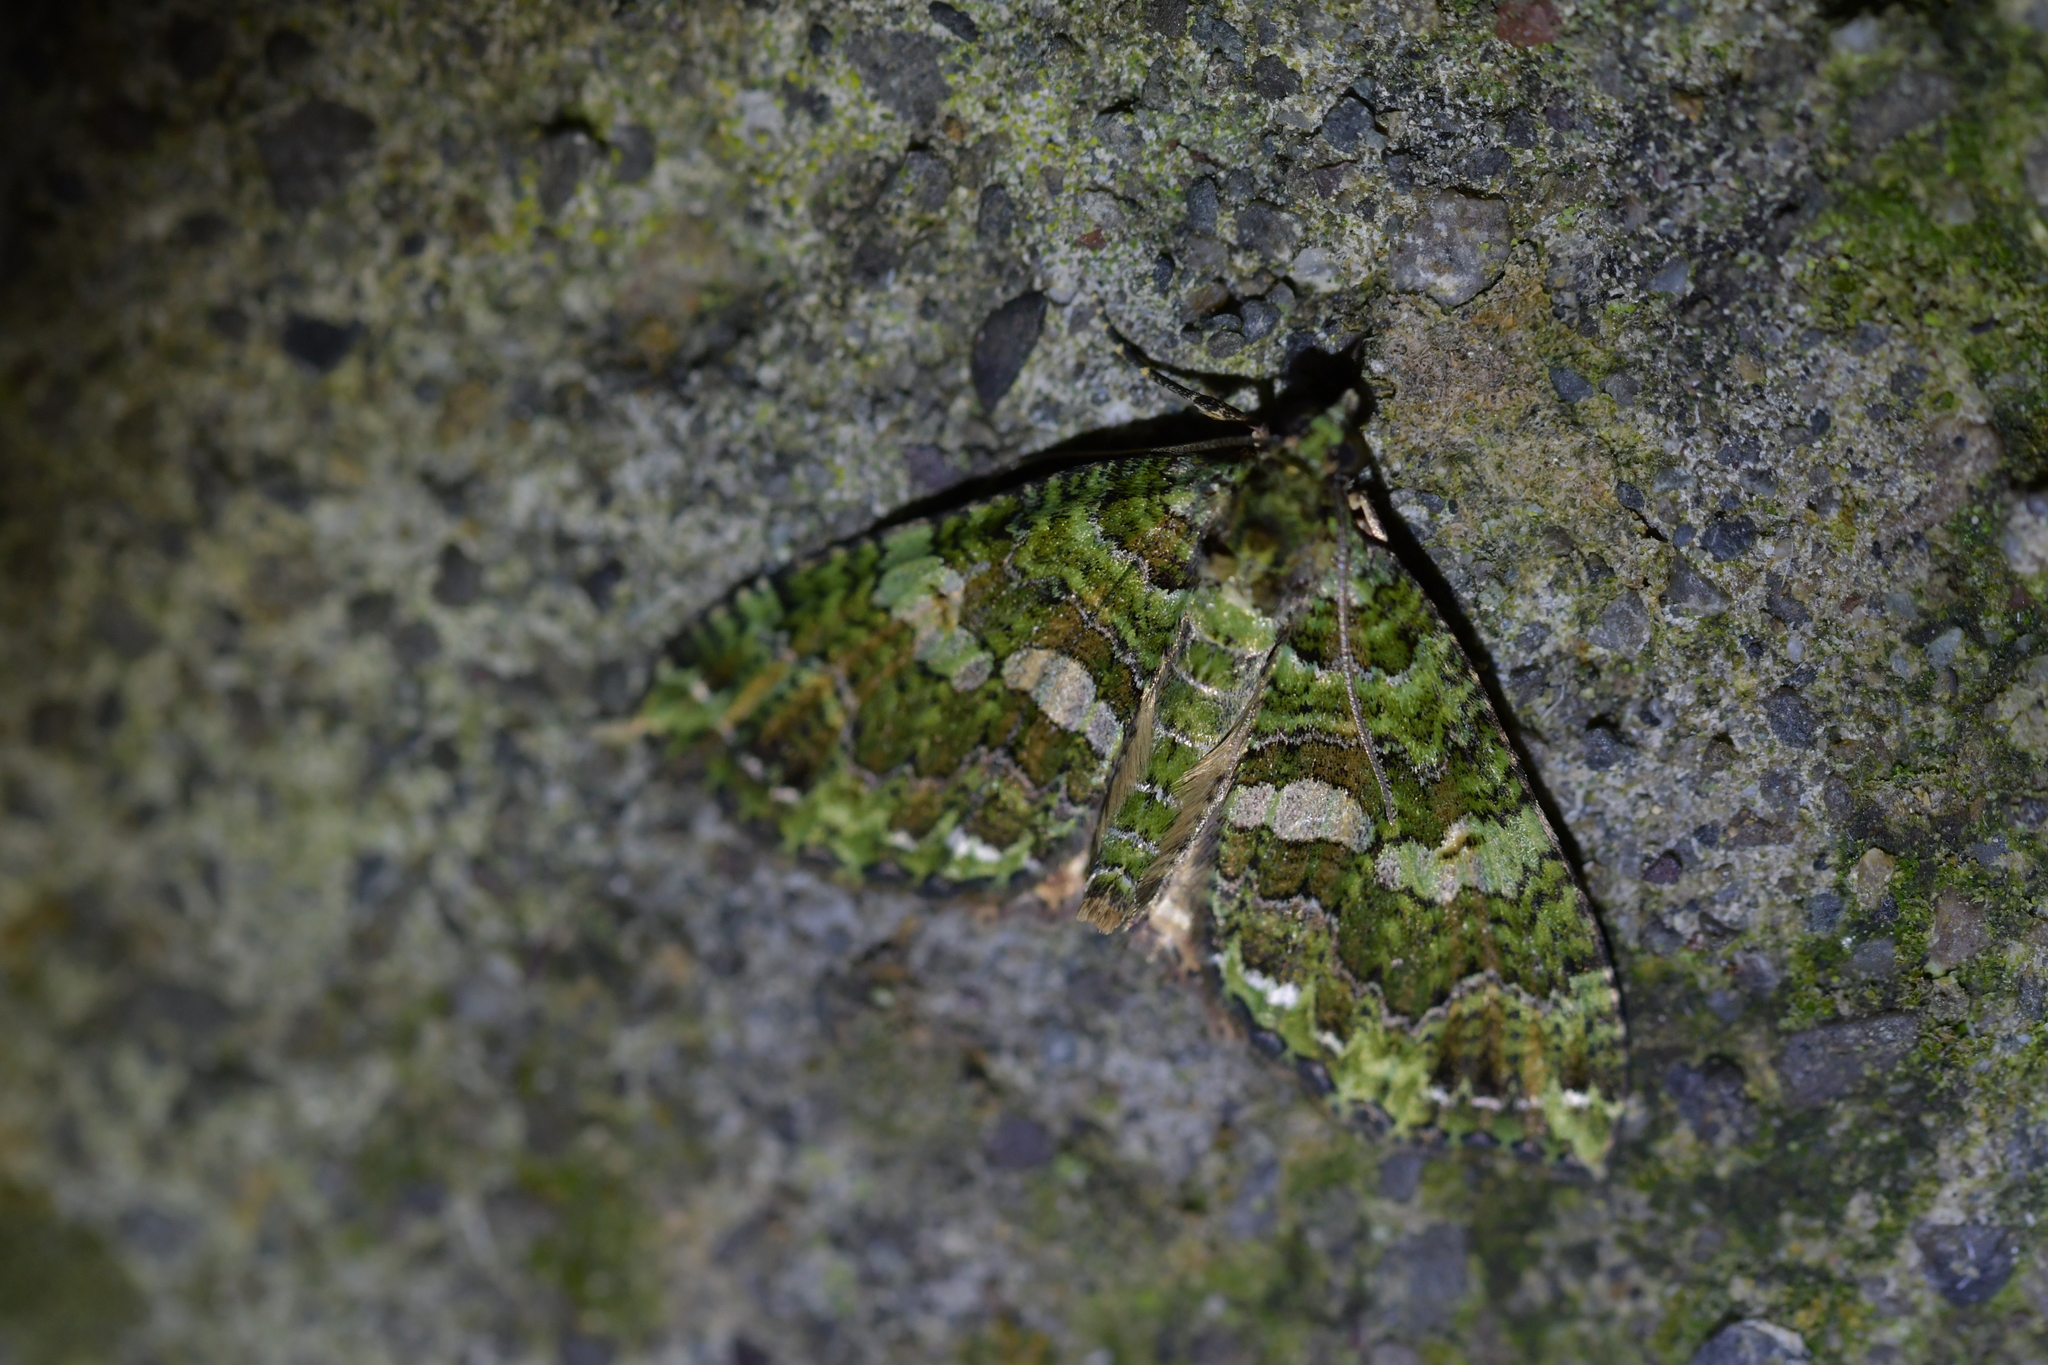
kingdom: Animalia
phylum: Arthropoda
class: Insecta
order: Lepidoptera
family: Geometridae
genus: Austrocidaria
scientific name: Austrocidaria similata
